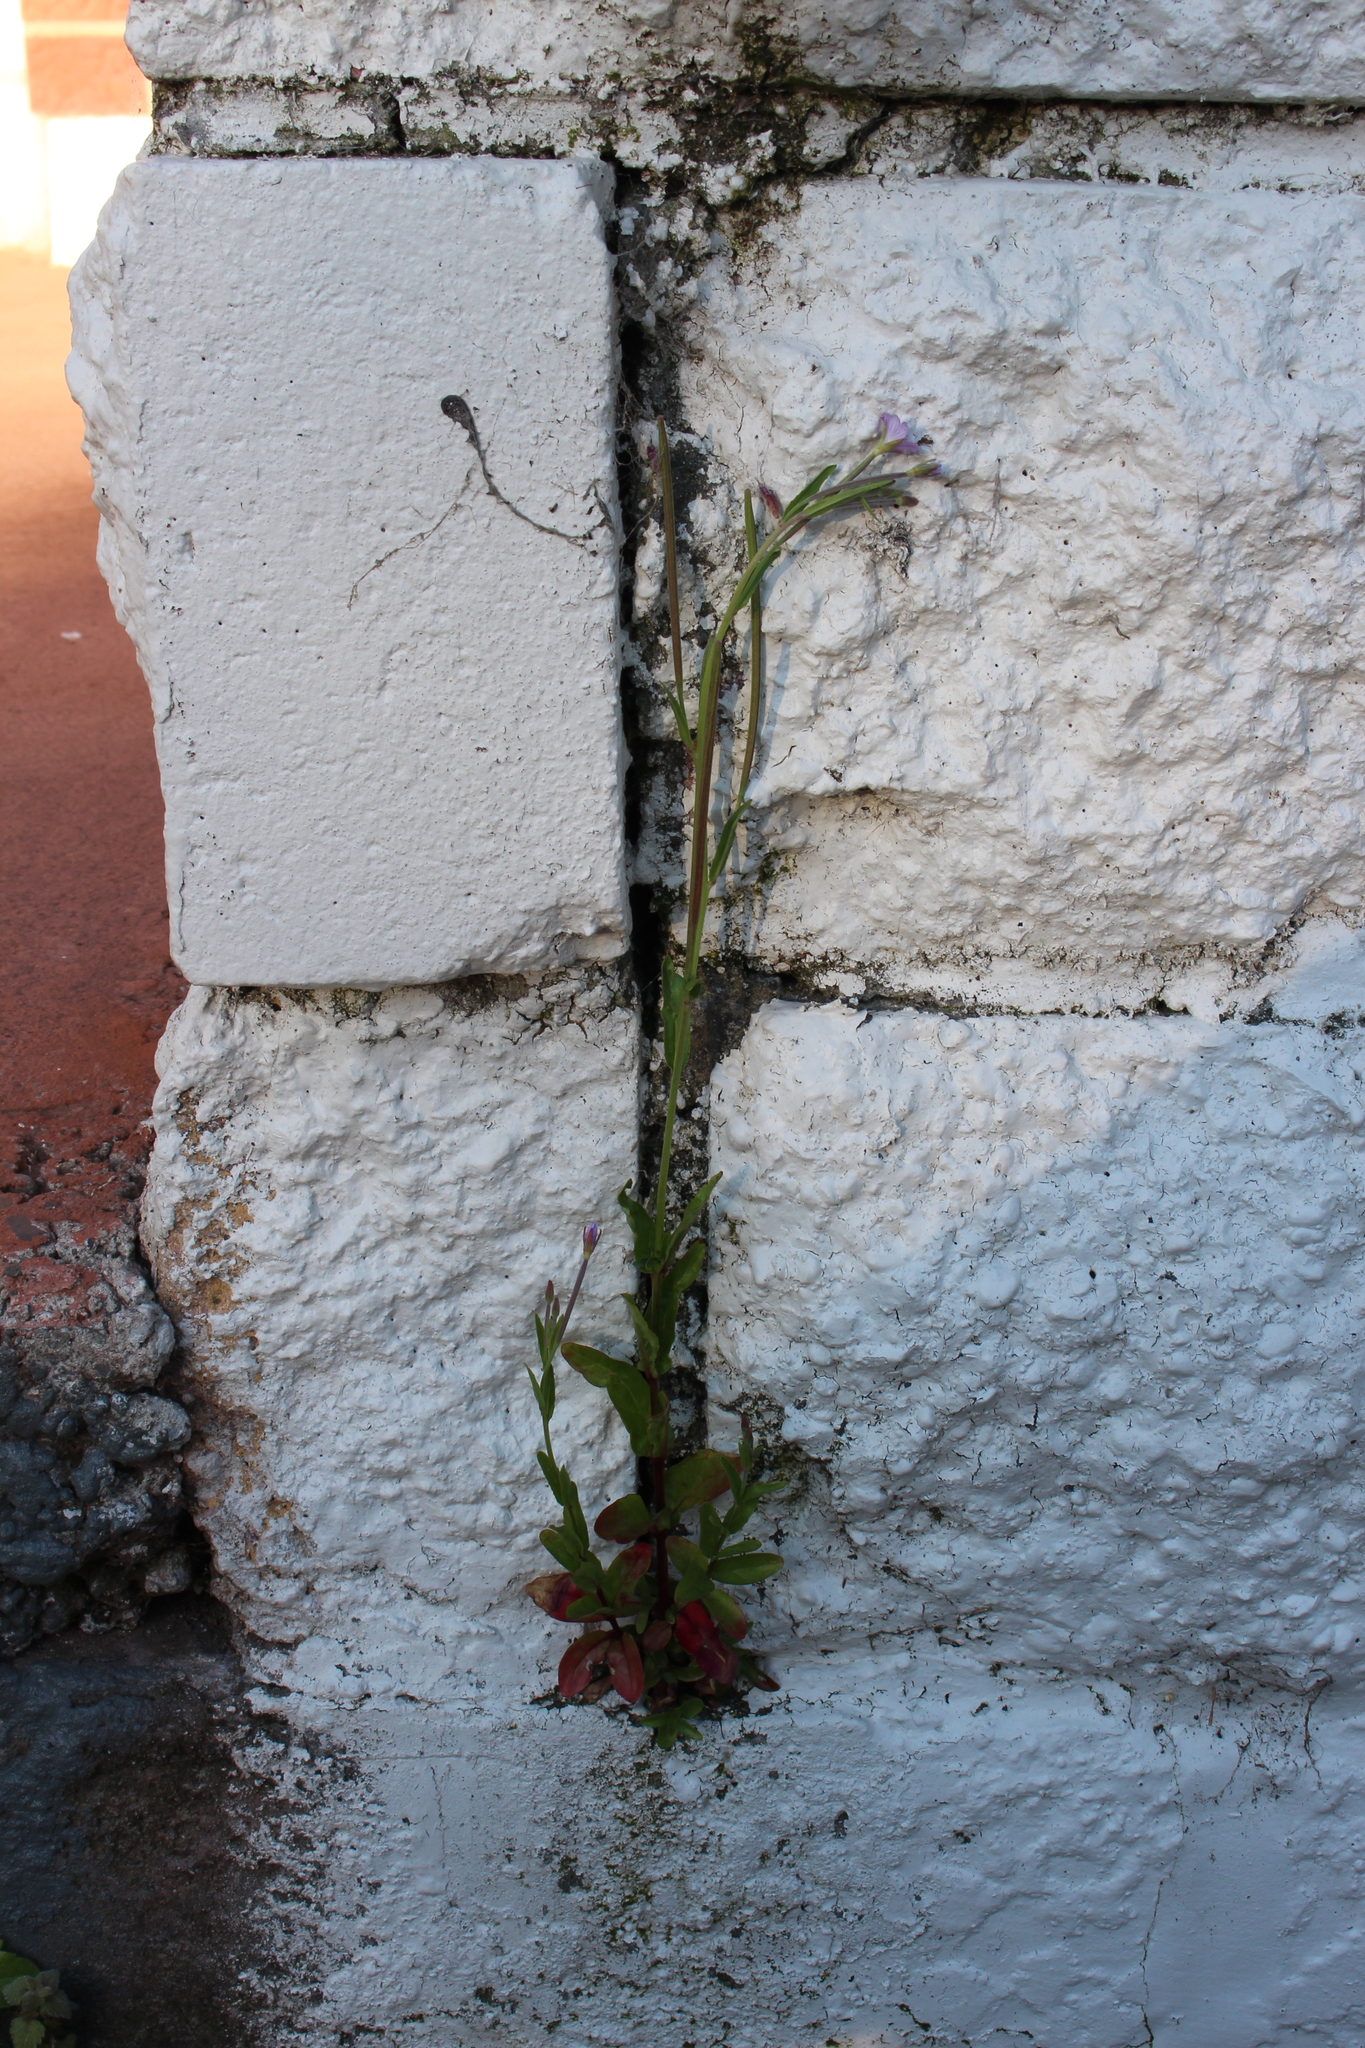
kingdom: Plantae
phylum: Tracheophyta
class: Magnoliopsida
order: Myrtales
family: Onagraceae
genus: Epilobium
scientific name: Epilobium ciliatum
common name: American willowherb
